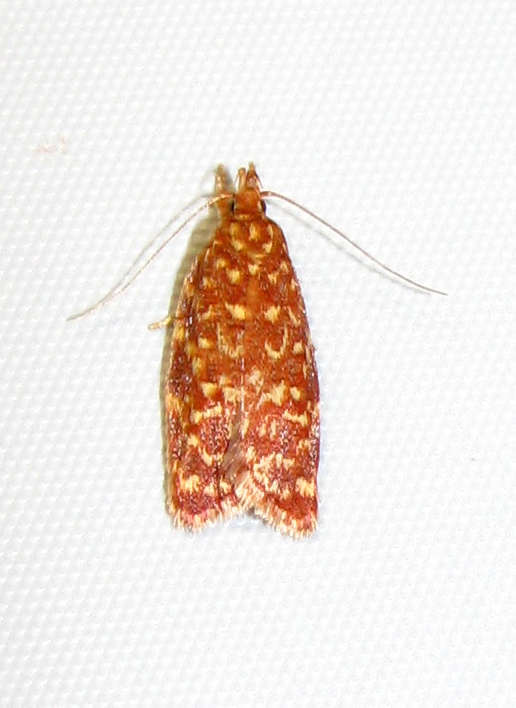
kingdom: Animalia
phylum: Arthropoda
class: Insecta
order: Lepidoptera
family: Oecophoridae
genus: Syringoseca
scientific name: Syringoseca rhodoxantha
